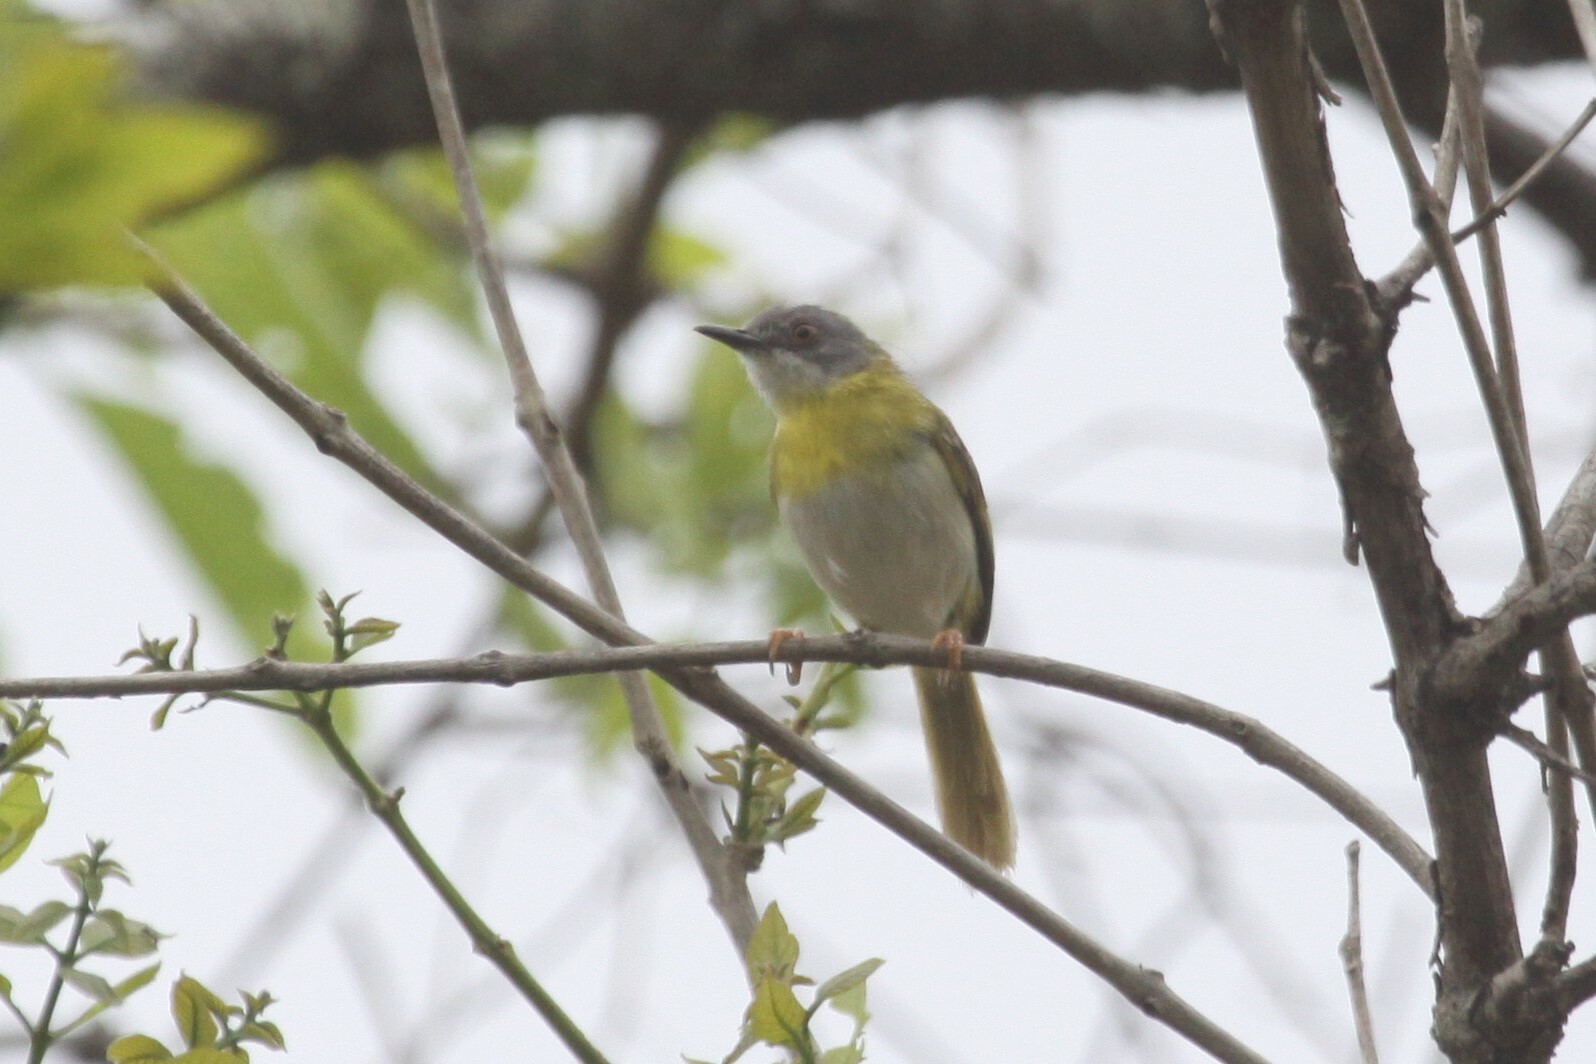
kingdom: Animalia
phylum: Chordata
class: Aves
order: Passeriformes
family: Cisticolidae
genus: Apalis
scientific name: Apalis flavida
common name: Yellow-breasted apalis
